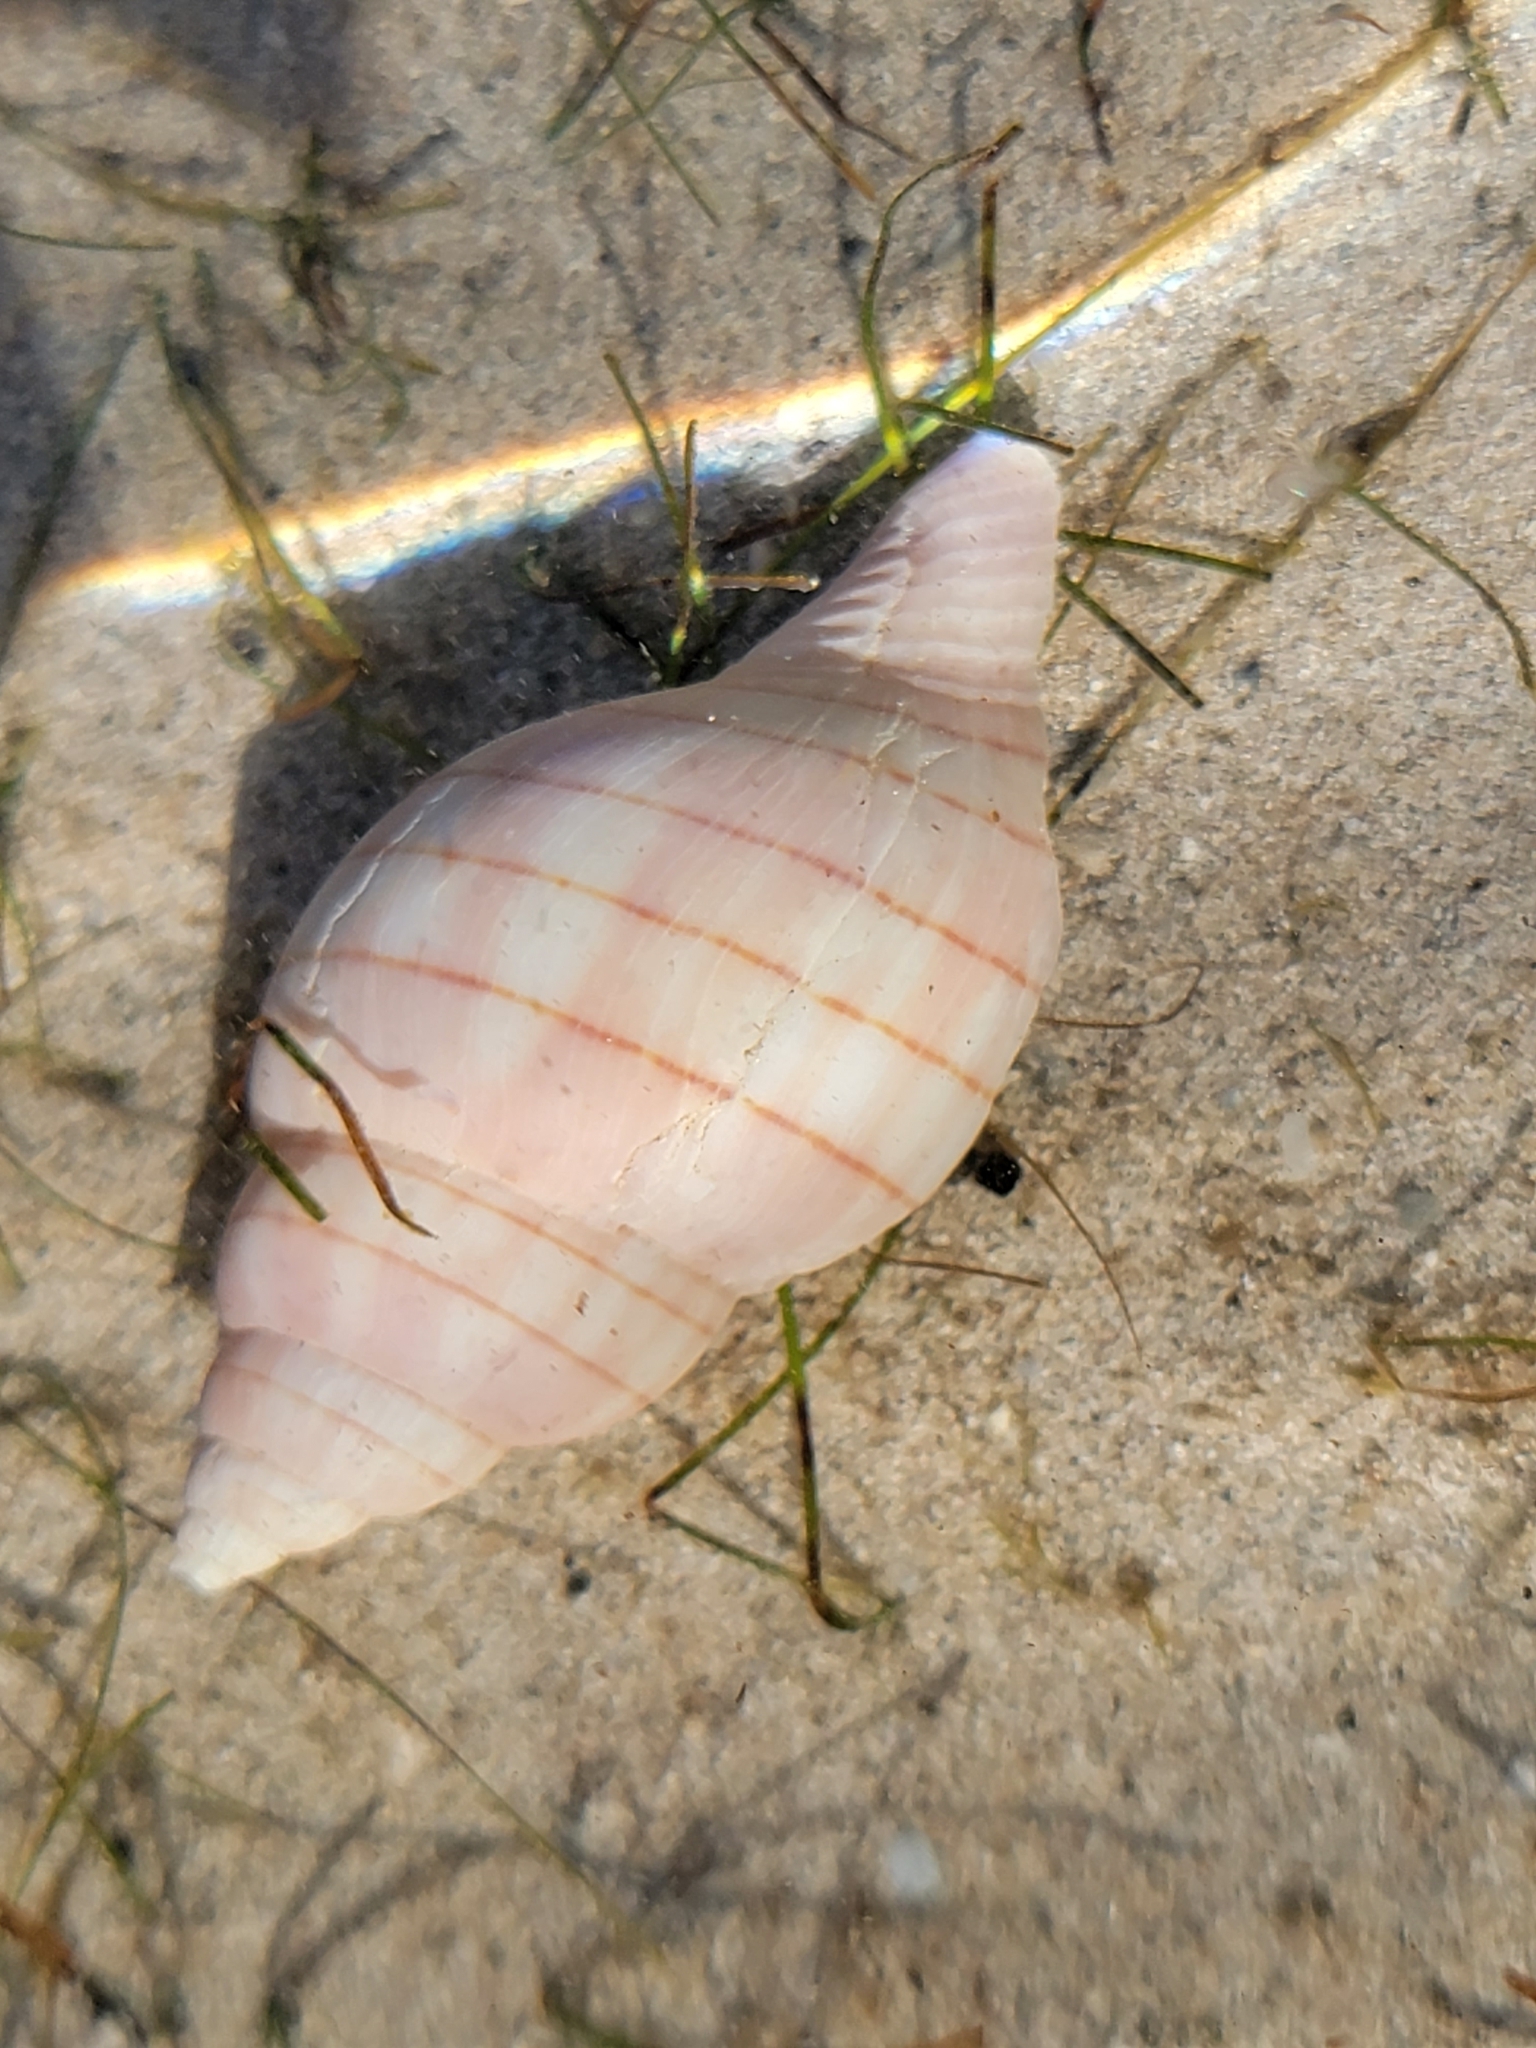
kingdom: Animalia
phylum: Mollusca
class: Gastropoda
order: Neogastropoda
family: Fasciolariidae
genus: Cinctura
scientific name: Cinctura hunteria
